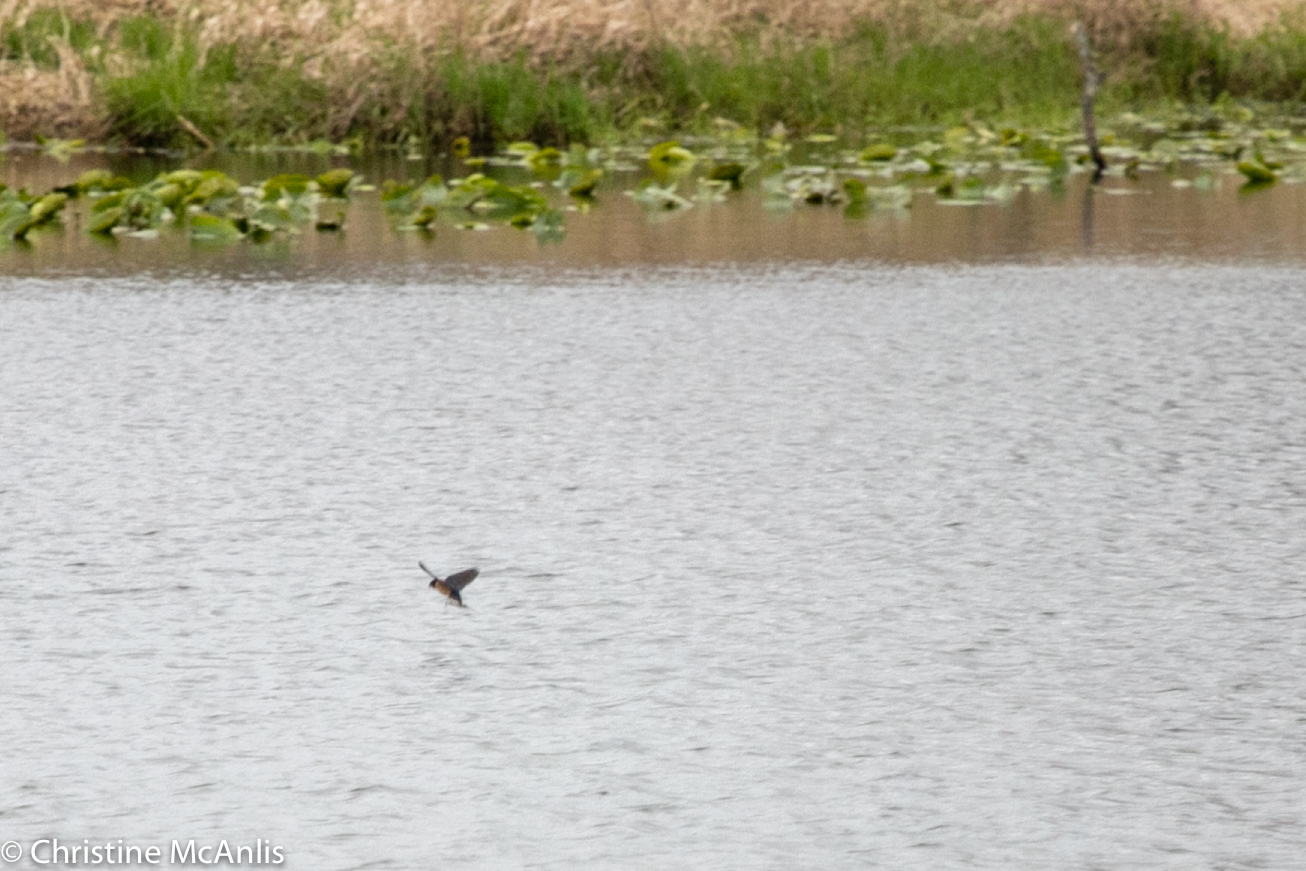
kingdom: Animalia
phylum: Chordata
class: Aves
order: Passeriformes
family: Hirundinidae
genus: Hirundo
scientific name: Hirundo rustica
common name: Barn swallow
